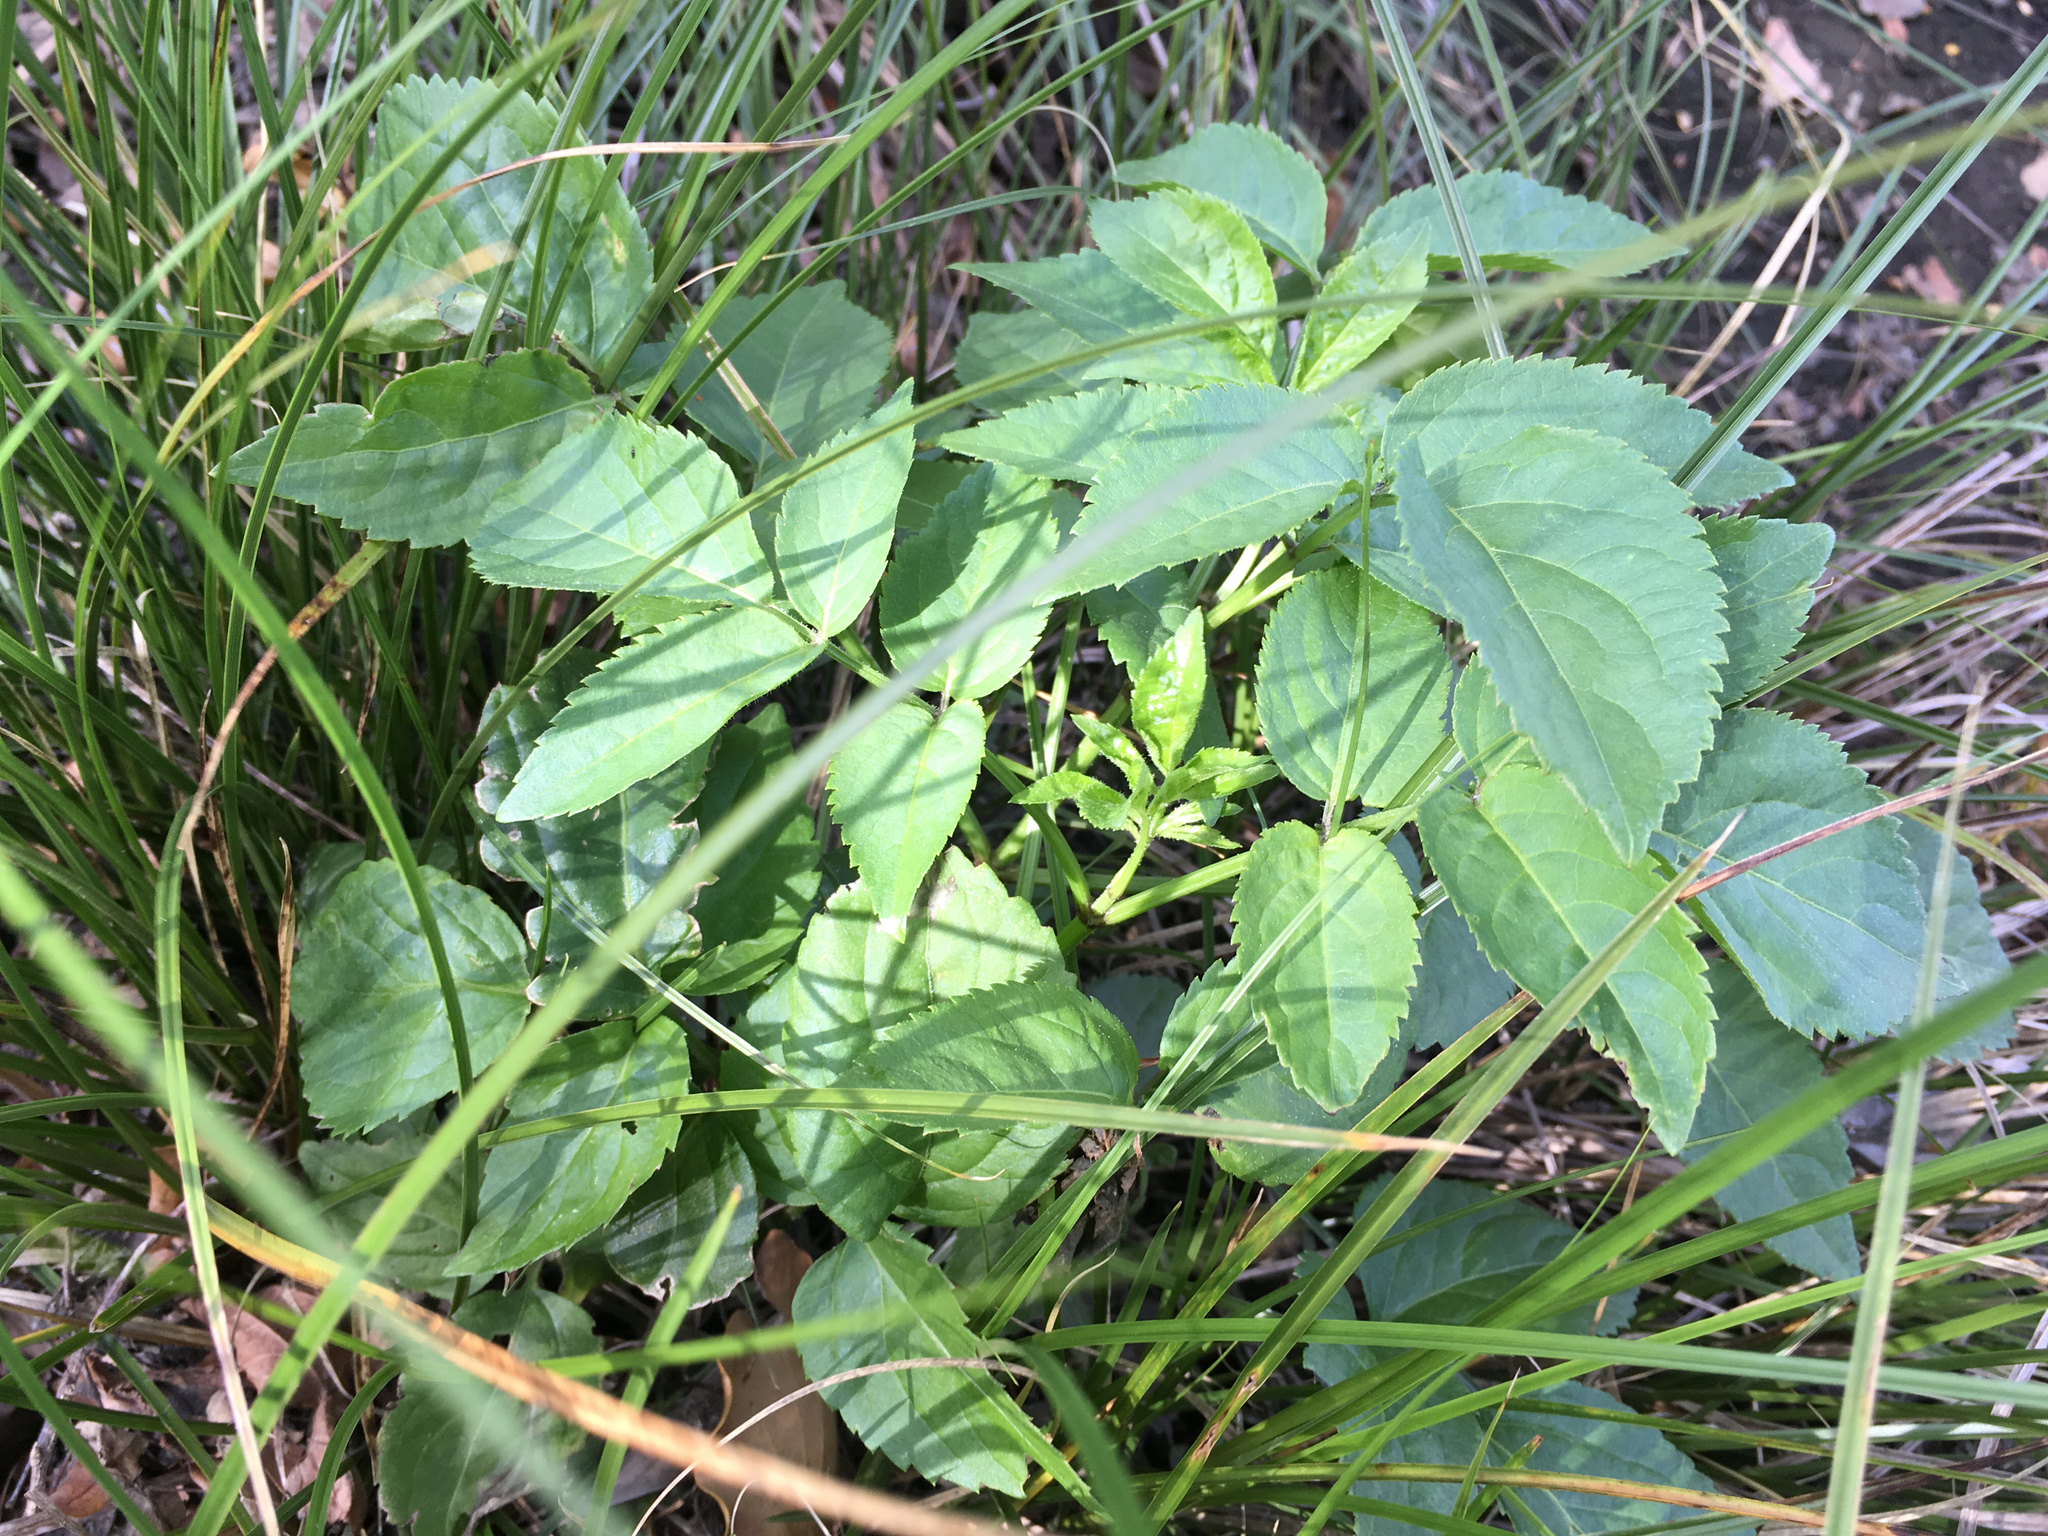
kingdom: Plantae
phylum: Tracheophyta
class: Magnoliopsida
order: Dipsacales
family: Viburnaceae
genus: Sambucus
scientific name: Sambucus nigra
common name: Elder
